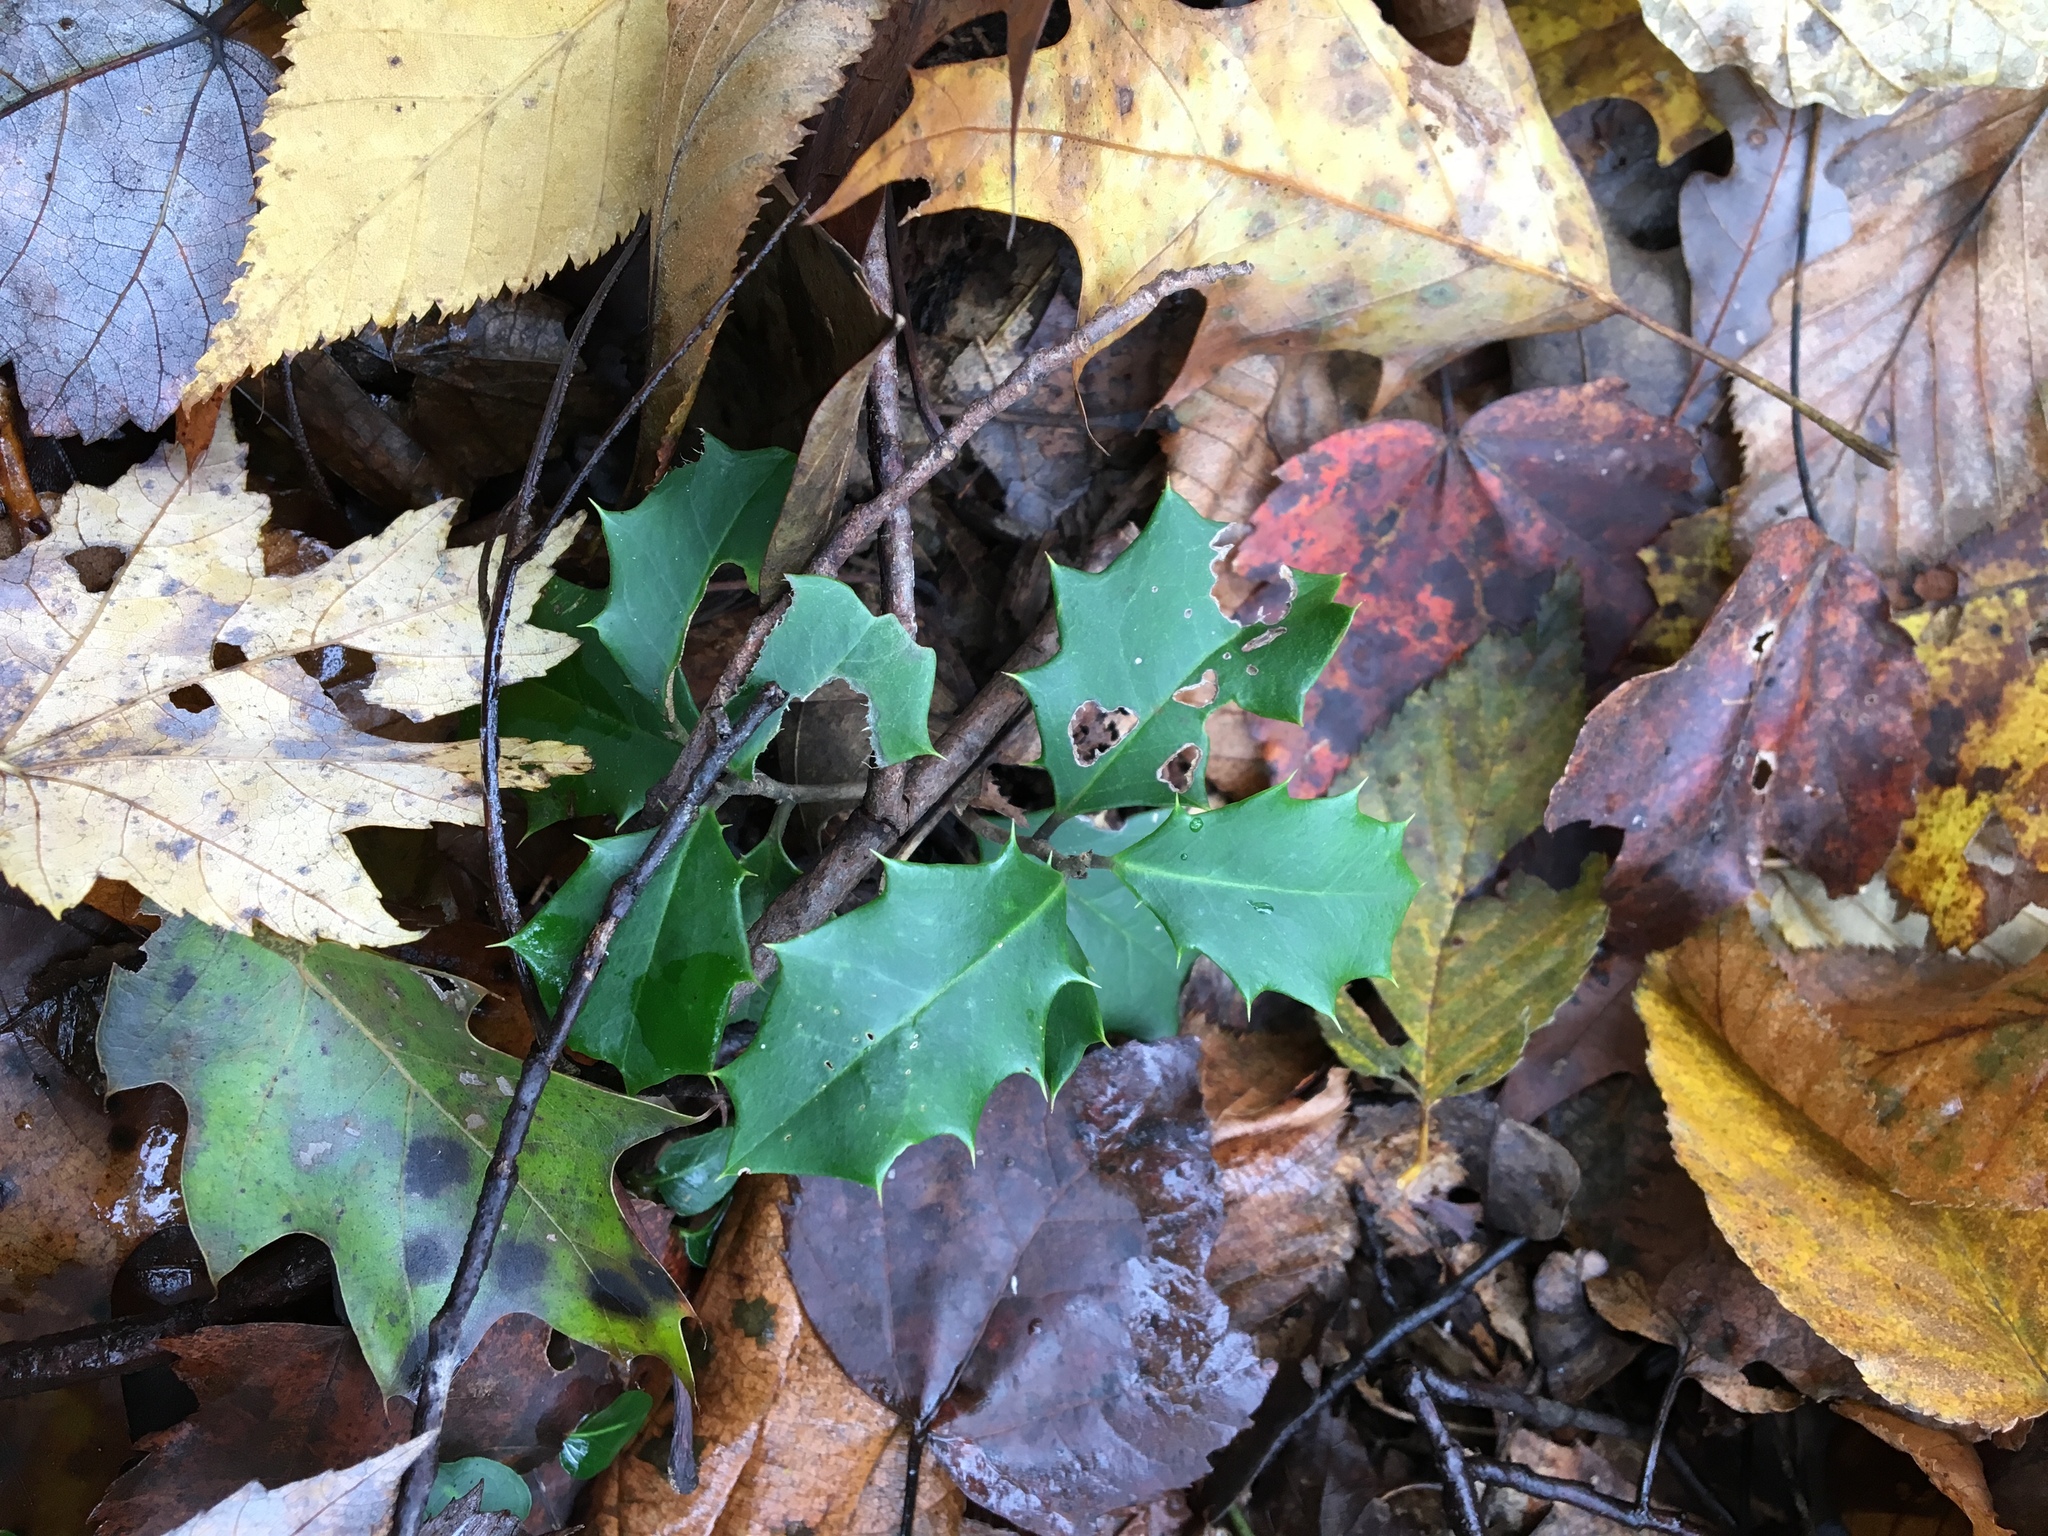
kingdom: Plantae
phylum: Tracheophyta
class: Magnoliopsida
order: Aquifoliales
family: Aquifoliaceae
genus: Ilex
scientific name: Ilex opaca
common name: American holly
